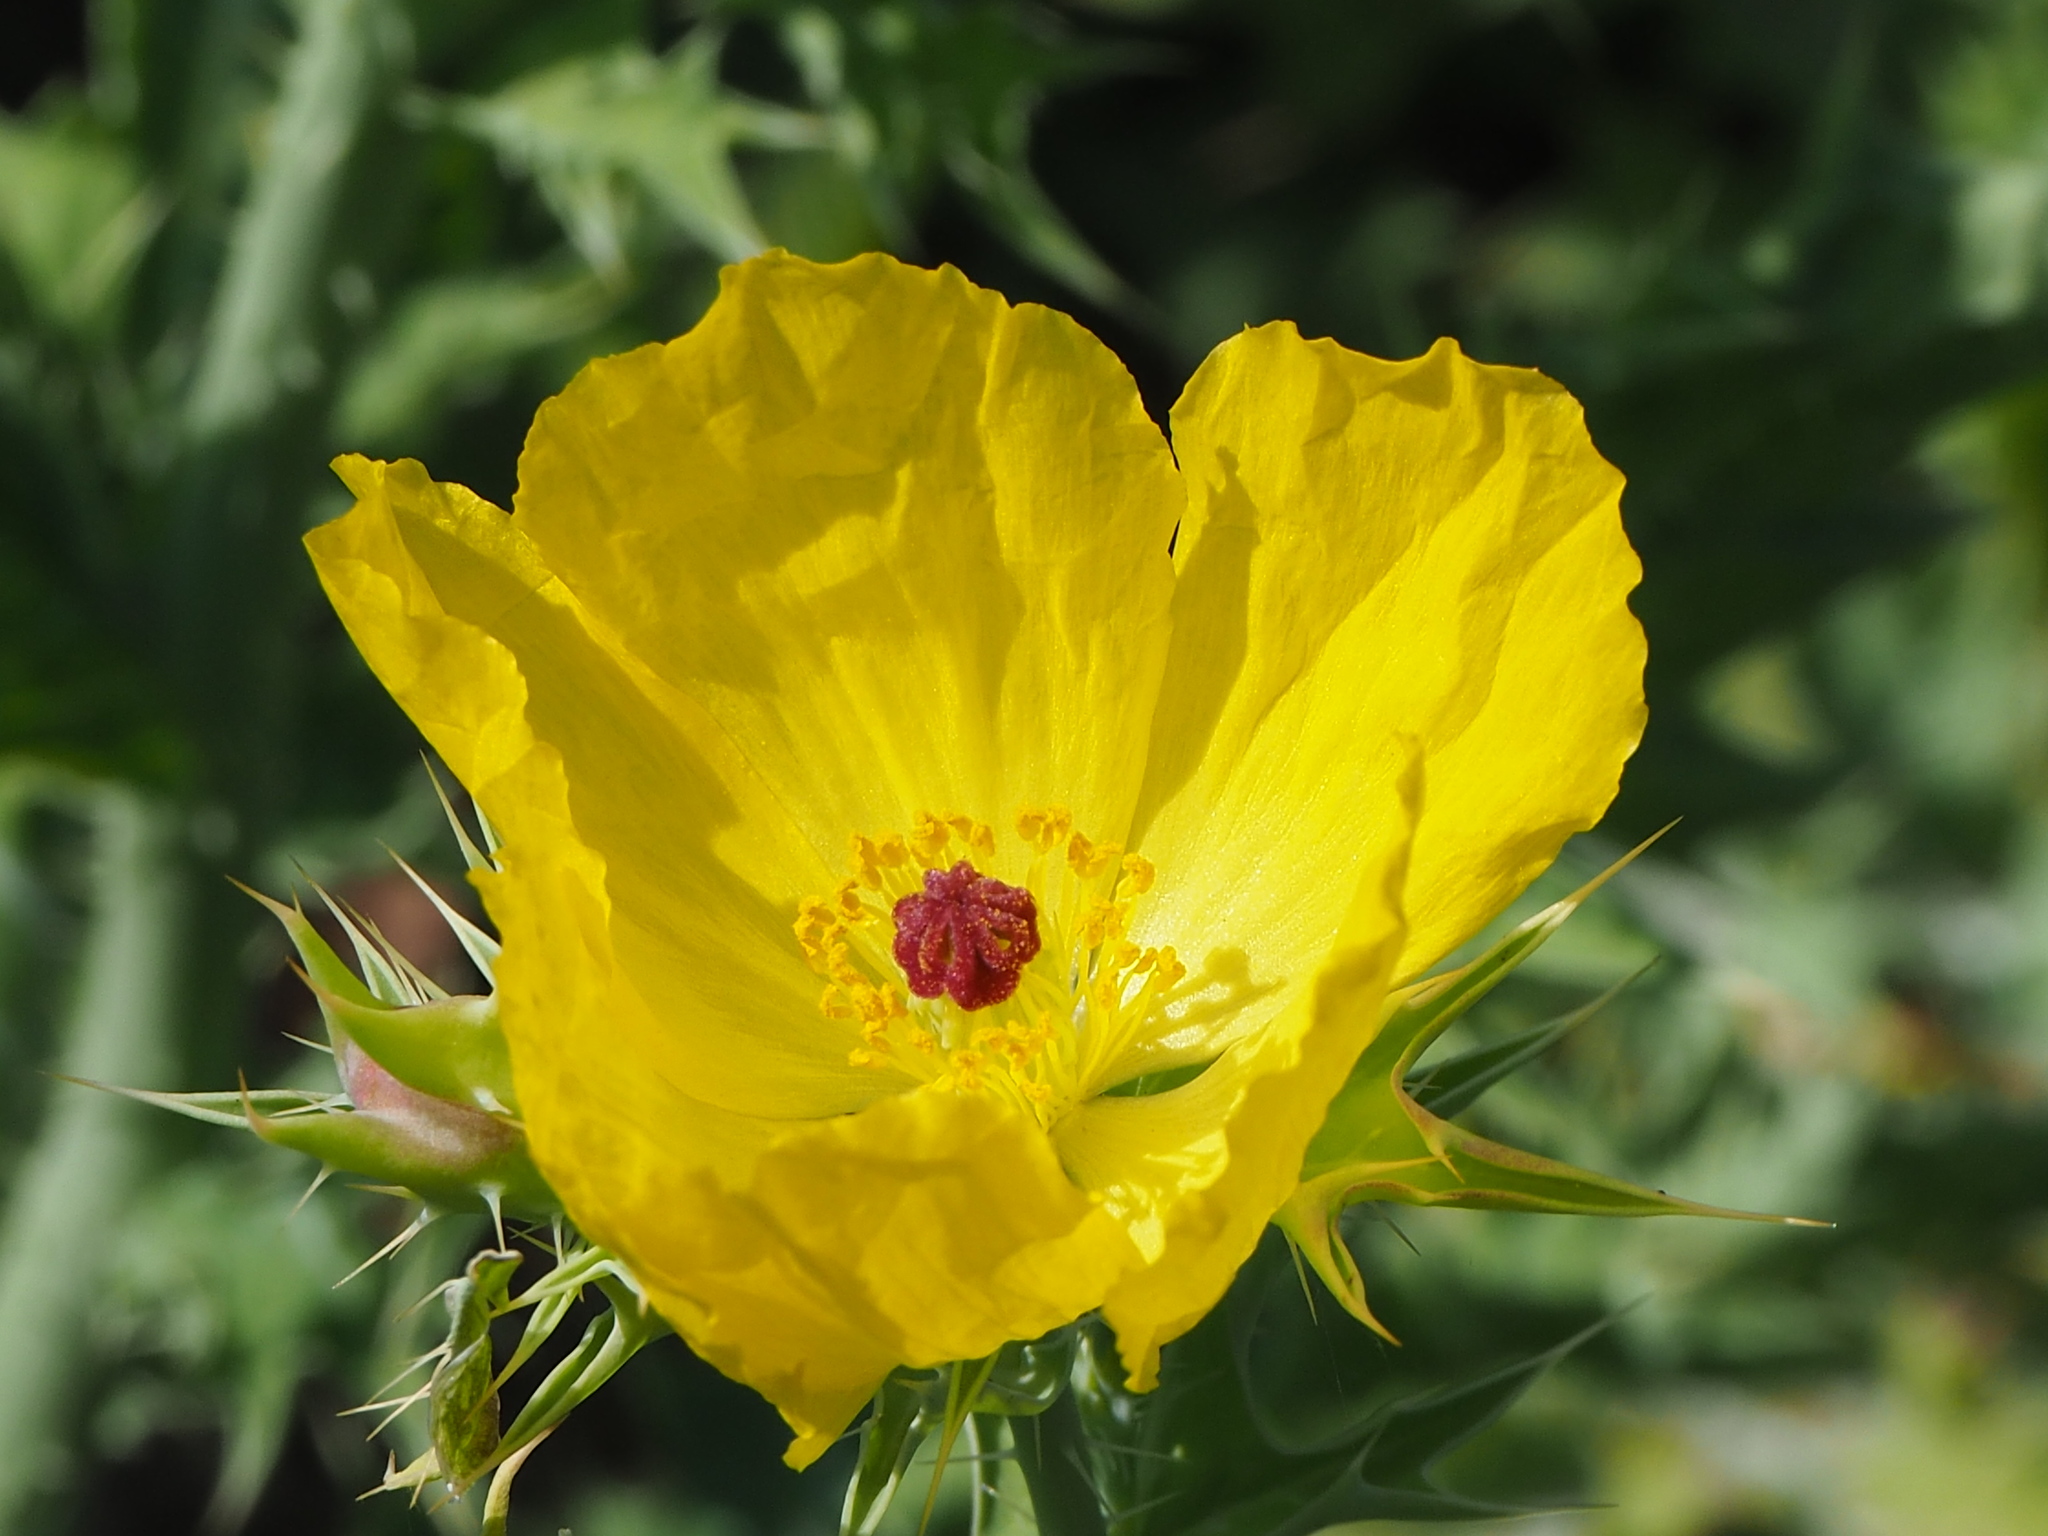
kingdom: Plantae
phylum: Tracheophyta
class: Magnoliopsida
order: Ranunculales
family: Papaveraceae
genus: Argemone
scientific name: Argemone mexicana
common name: Mexican poppy
